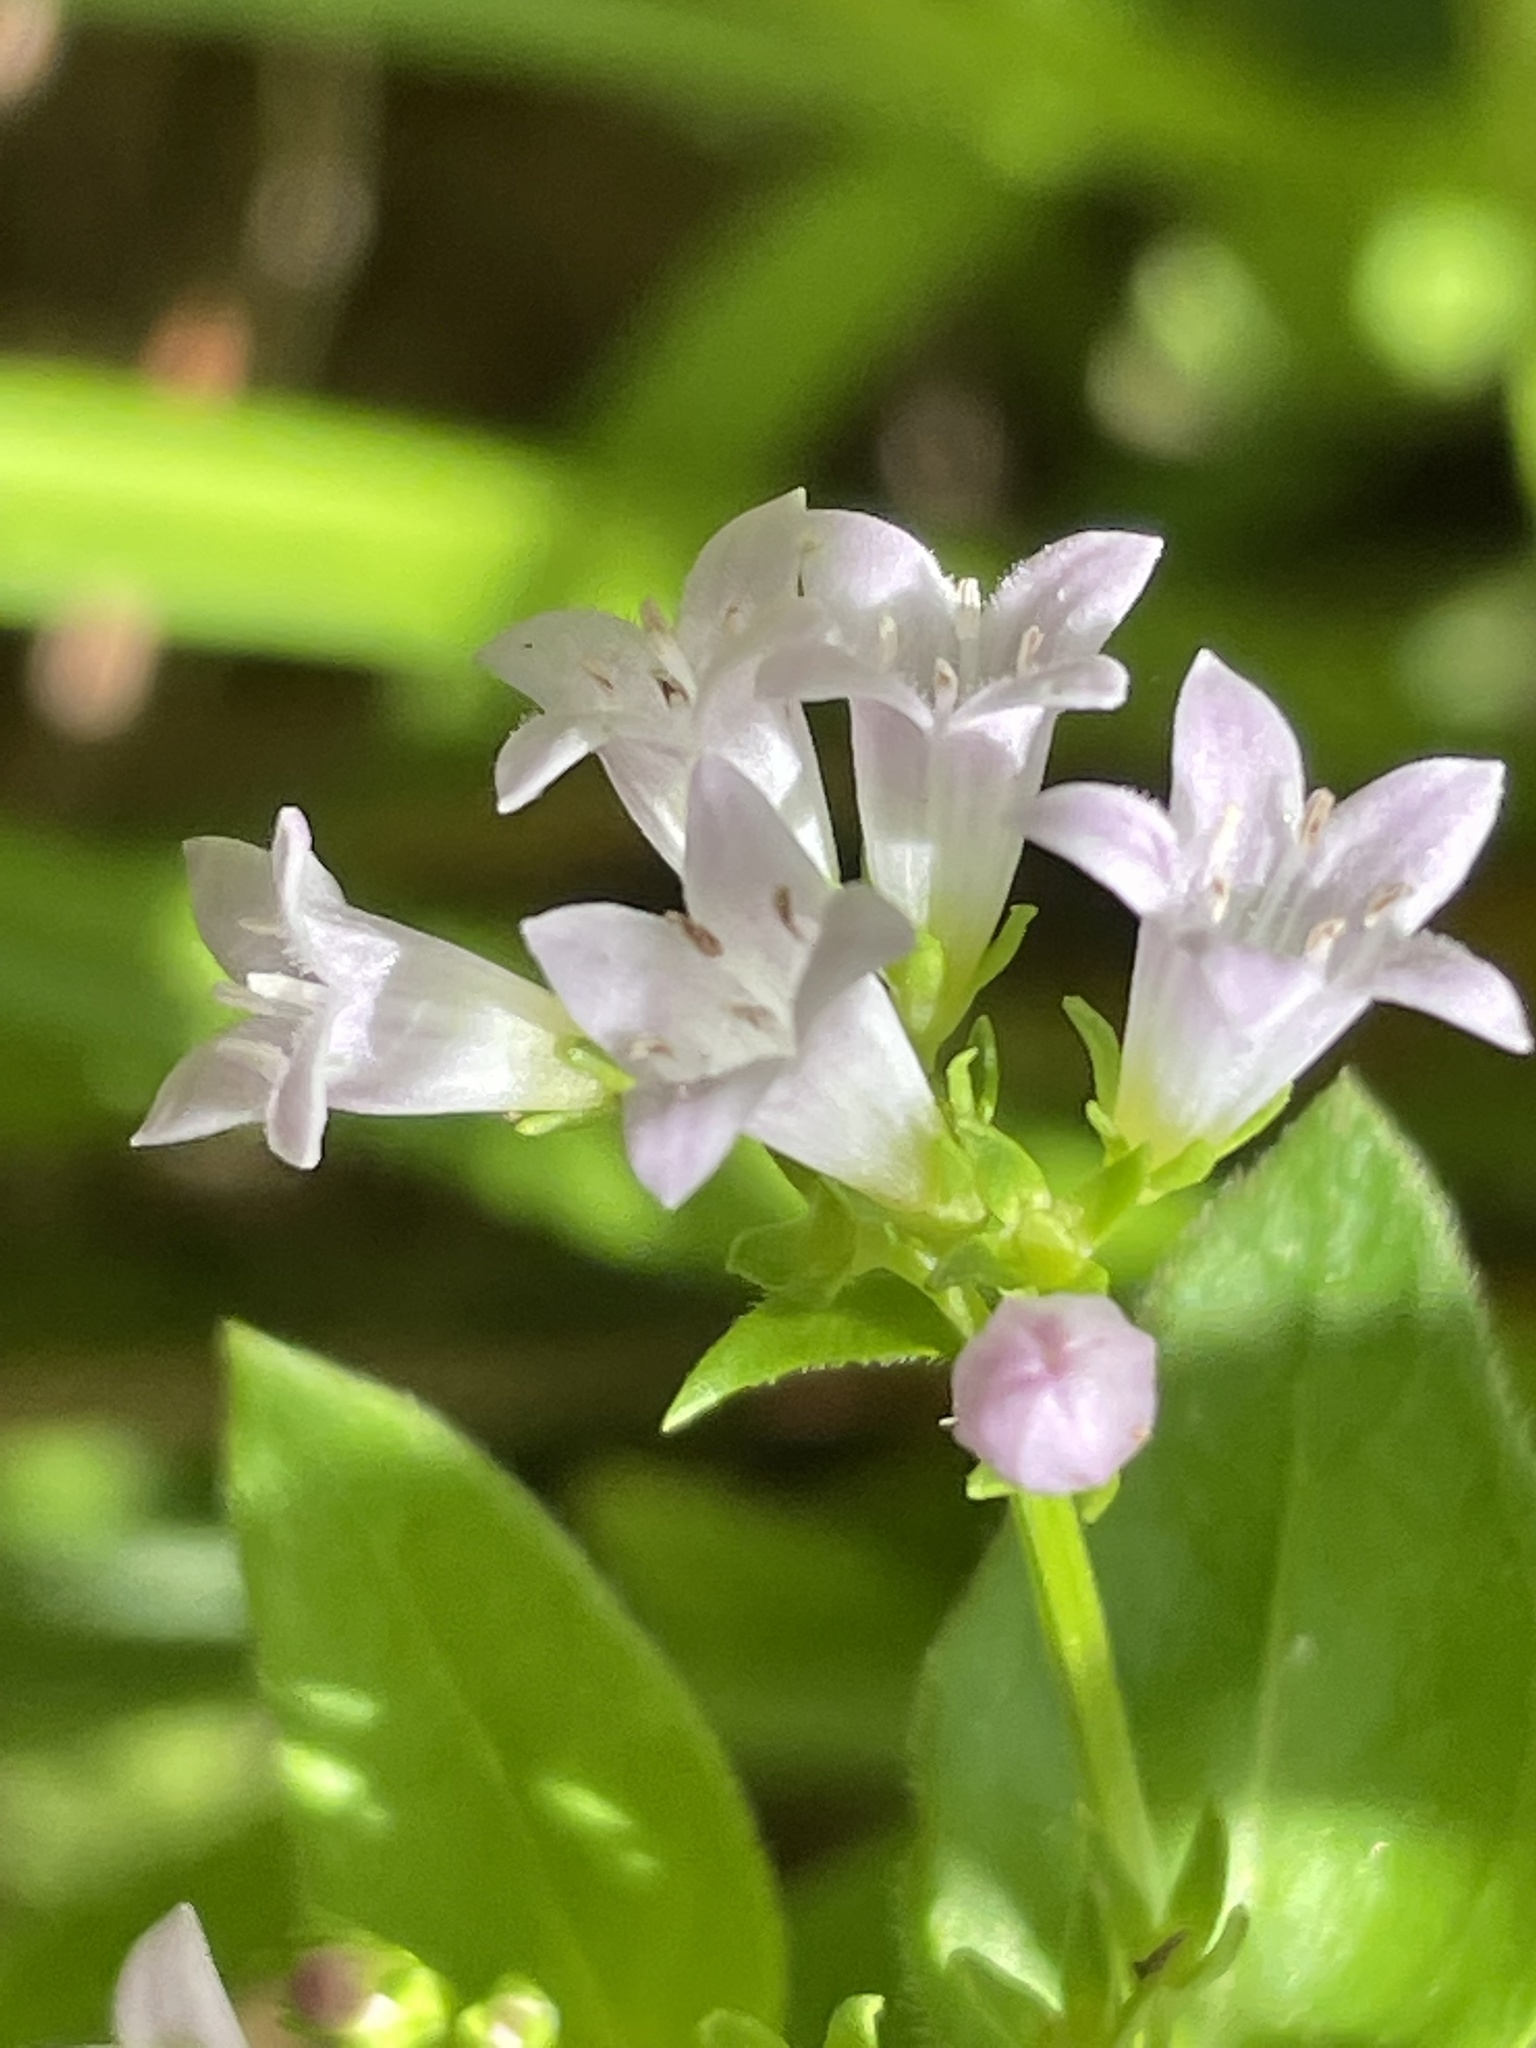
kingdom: Plantae
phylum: Tracheophyta
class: Magnoliopsida
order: Gentianales
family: Rubiaceae
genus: Houstonia
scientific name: Houstonia purpurea
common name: Summer bluet
